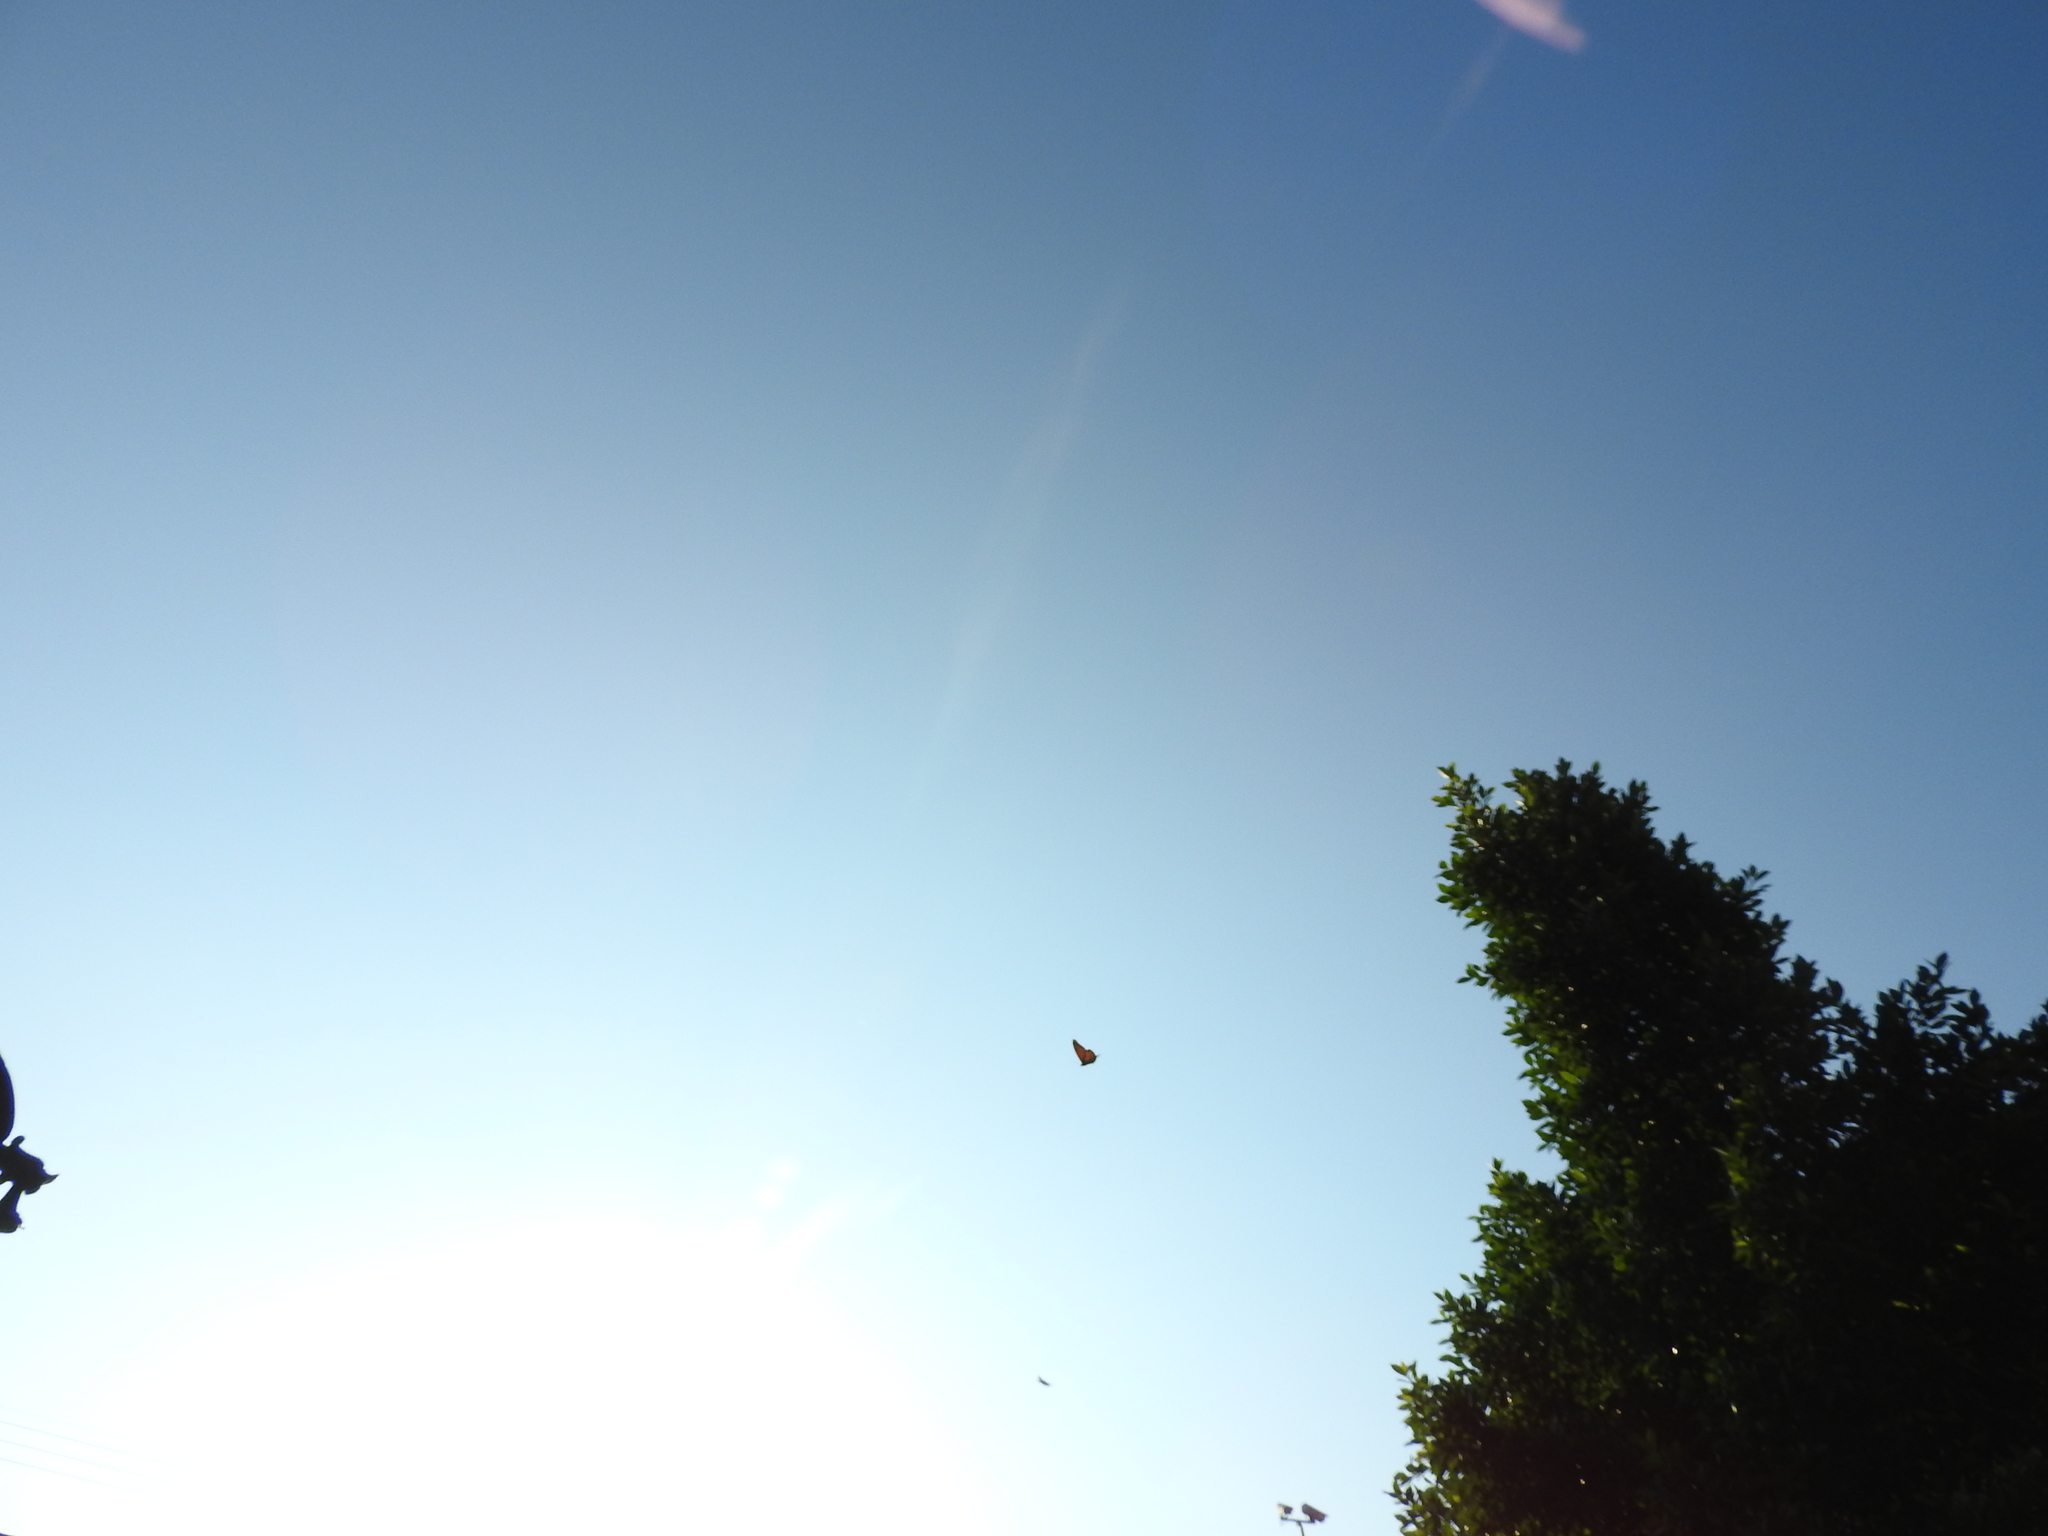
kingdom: Animalia
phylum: Arthropoda
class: Insecta
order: Lepidoptera
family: Nymphalidae
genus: Danaus
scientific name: Danaus plexippus
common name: Monarch
